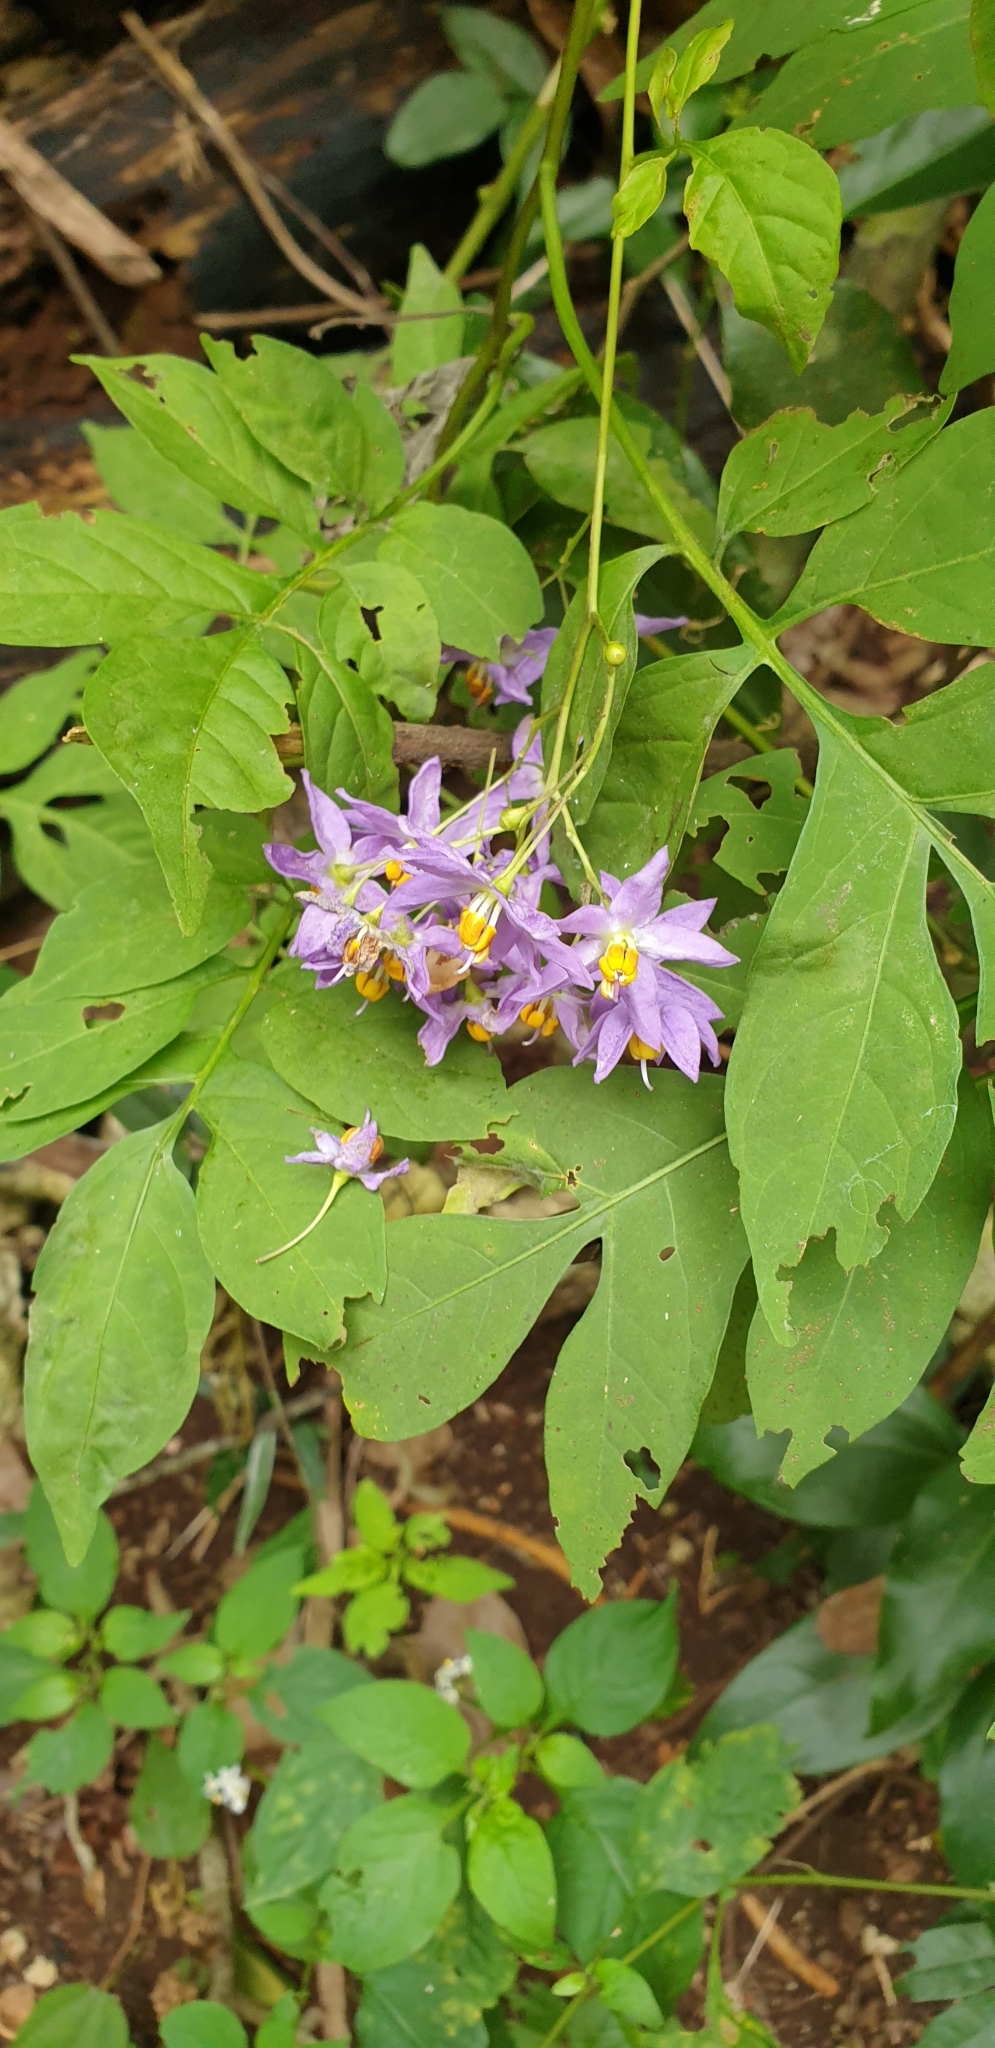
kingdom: Plantae
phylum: Tracheophyta
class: Magnoliopsida
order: Solanales
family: Solanaceae
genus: Solanum
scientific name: Solanum seaforthianum
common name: Brazilian nightshade
